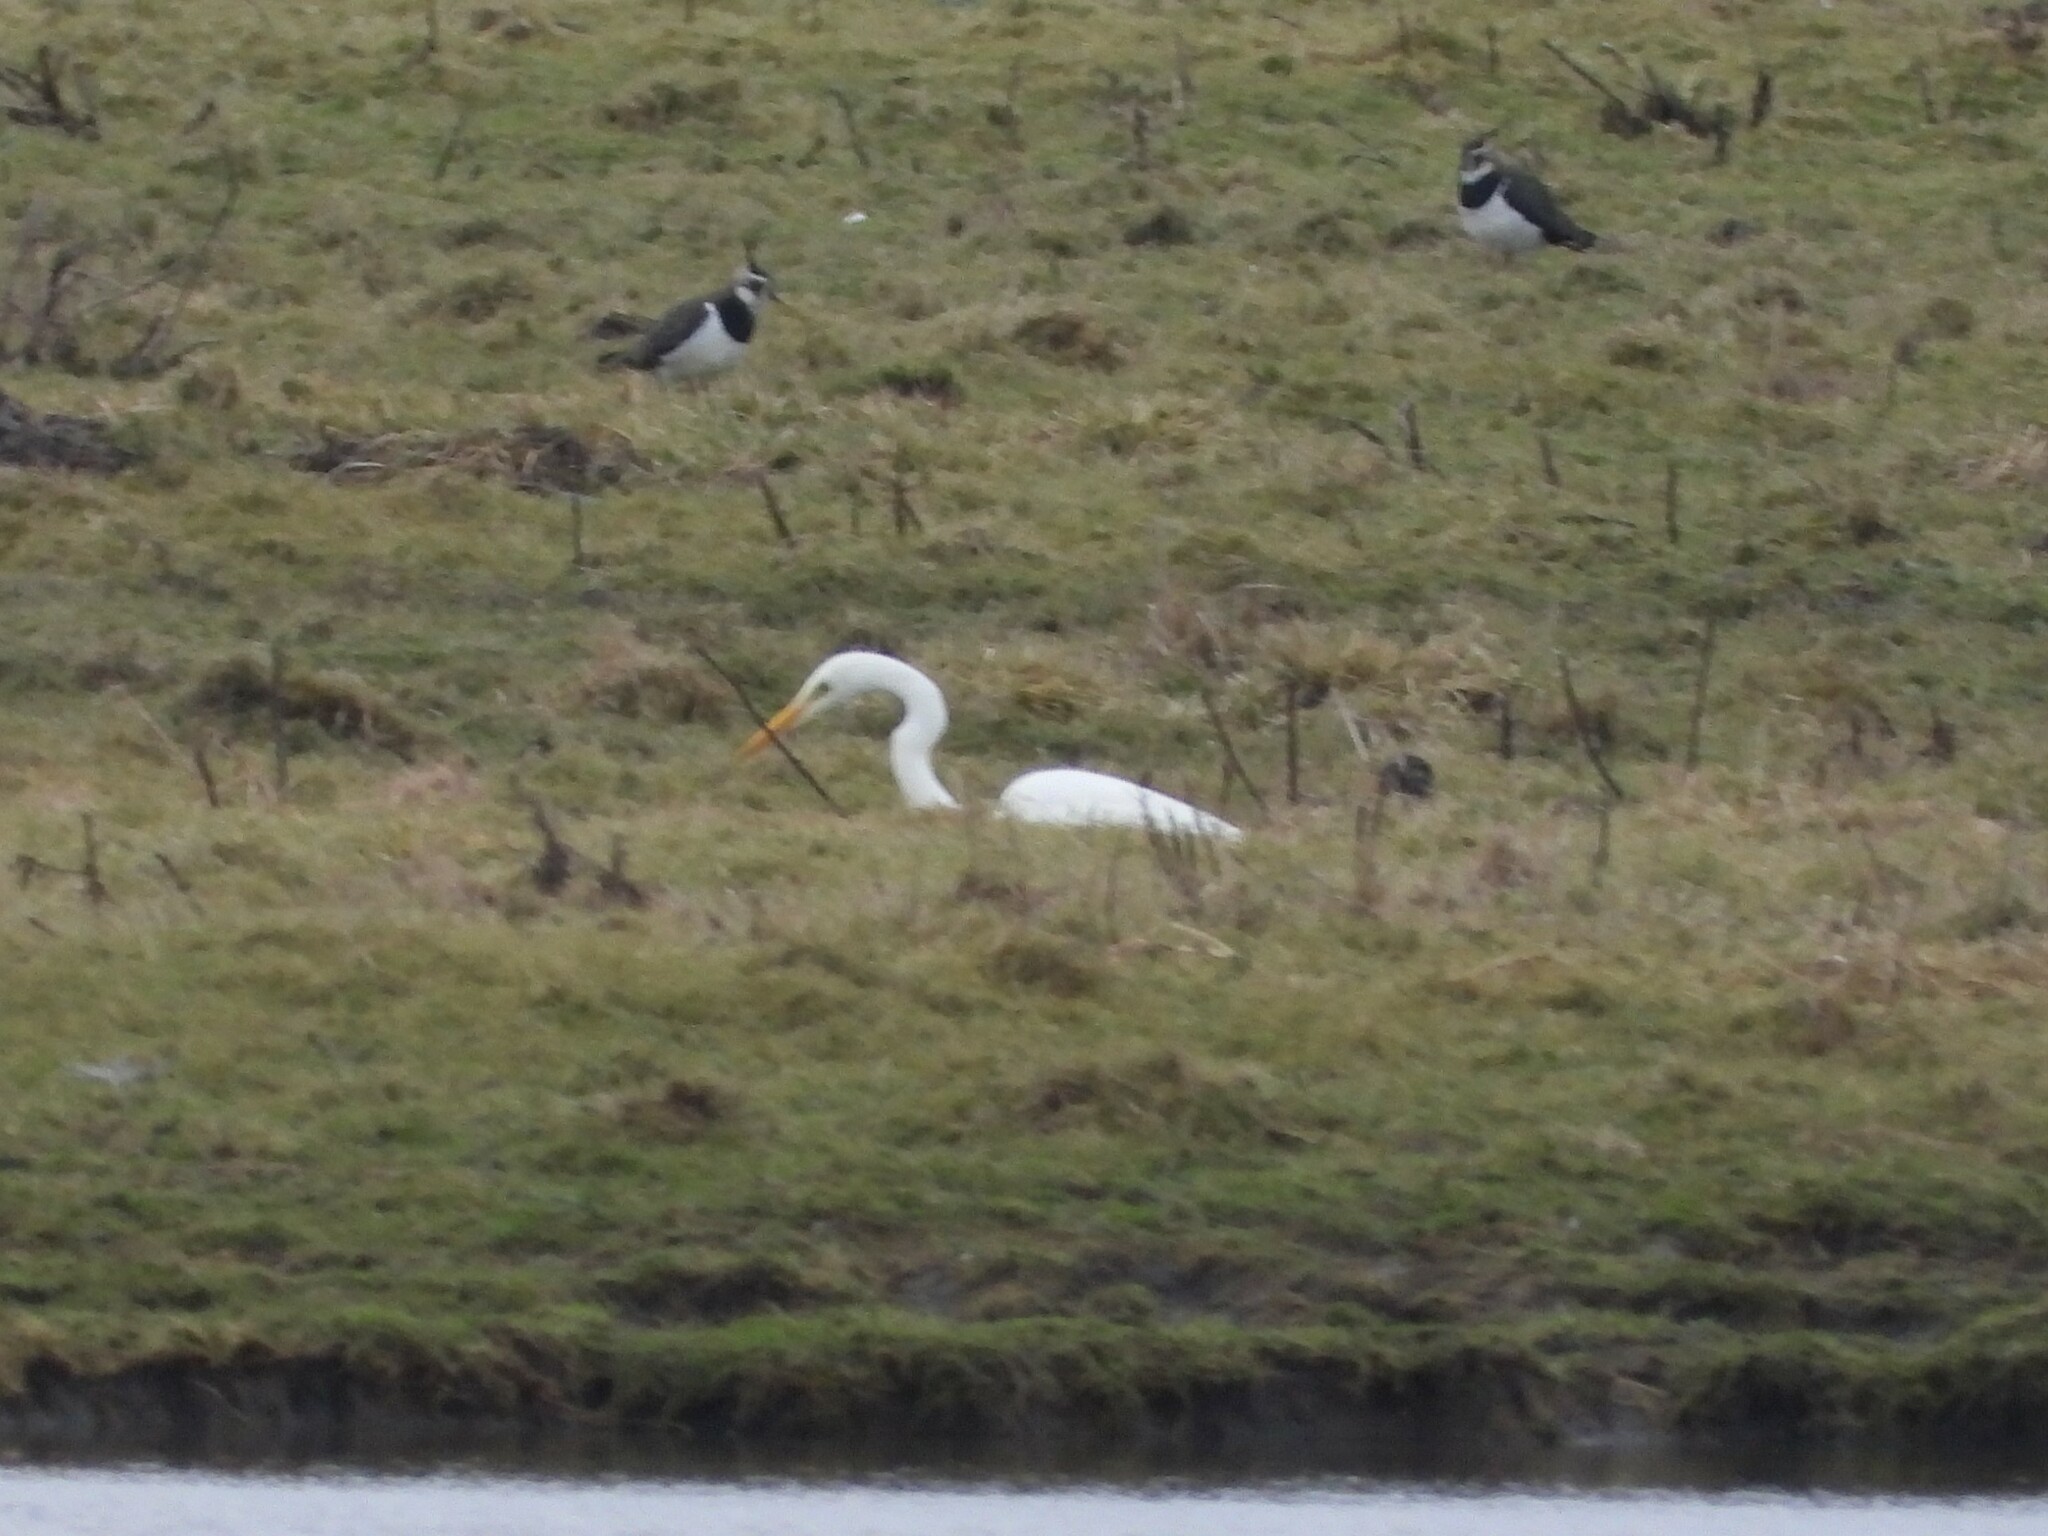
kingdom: Animalia
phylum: Chordata
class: Aves
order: Pelecaniformes
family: Ardeidae
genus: Ardea
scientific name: Ardea alba
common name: Great egret
